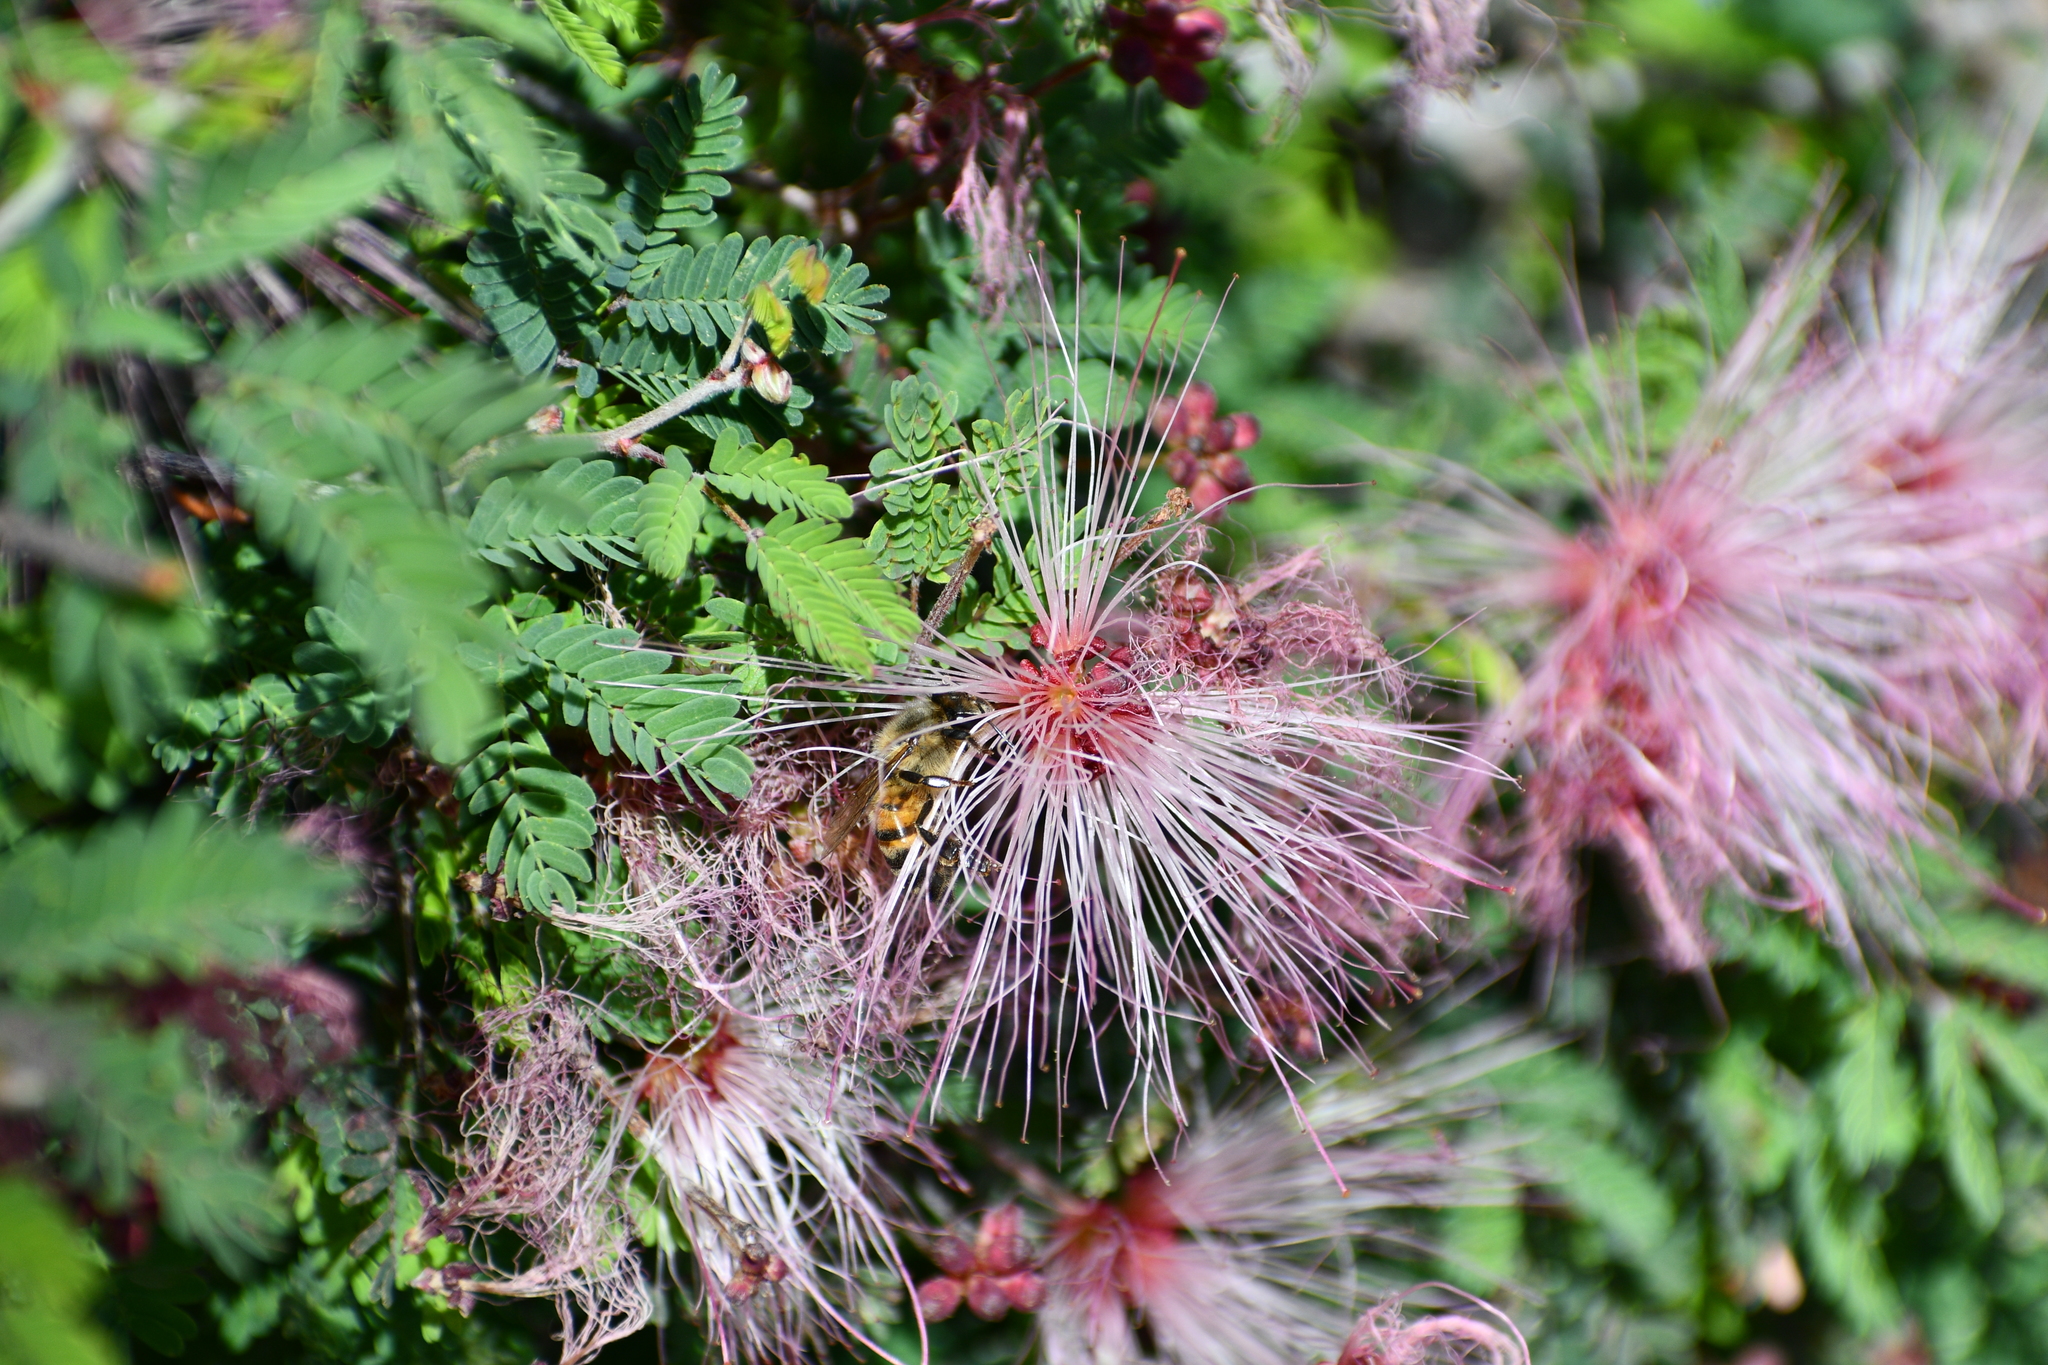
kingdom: Plantae
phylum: Tracheophyta
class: Magnoliopsida
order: Fabales
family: Fabaceae
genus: Calliandra
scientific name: Calliandra eriophylla
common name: Fairy-duster
